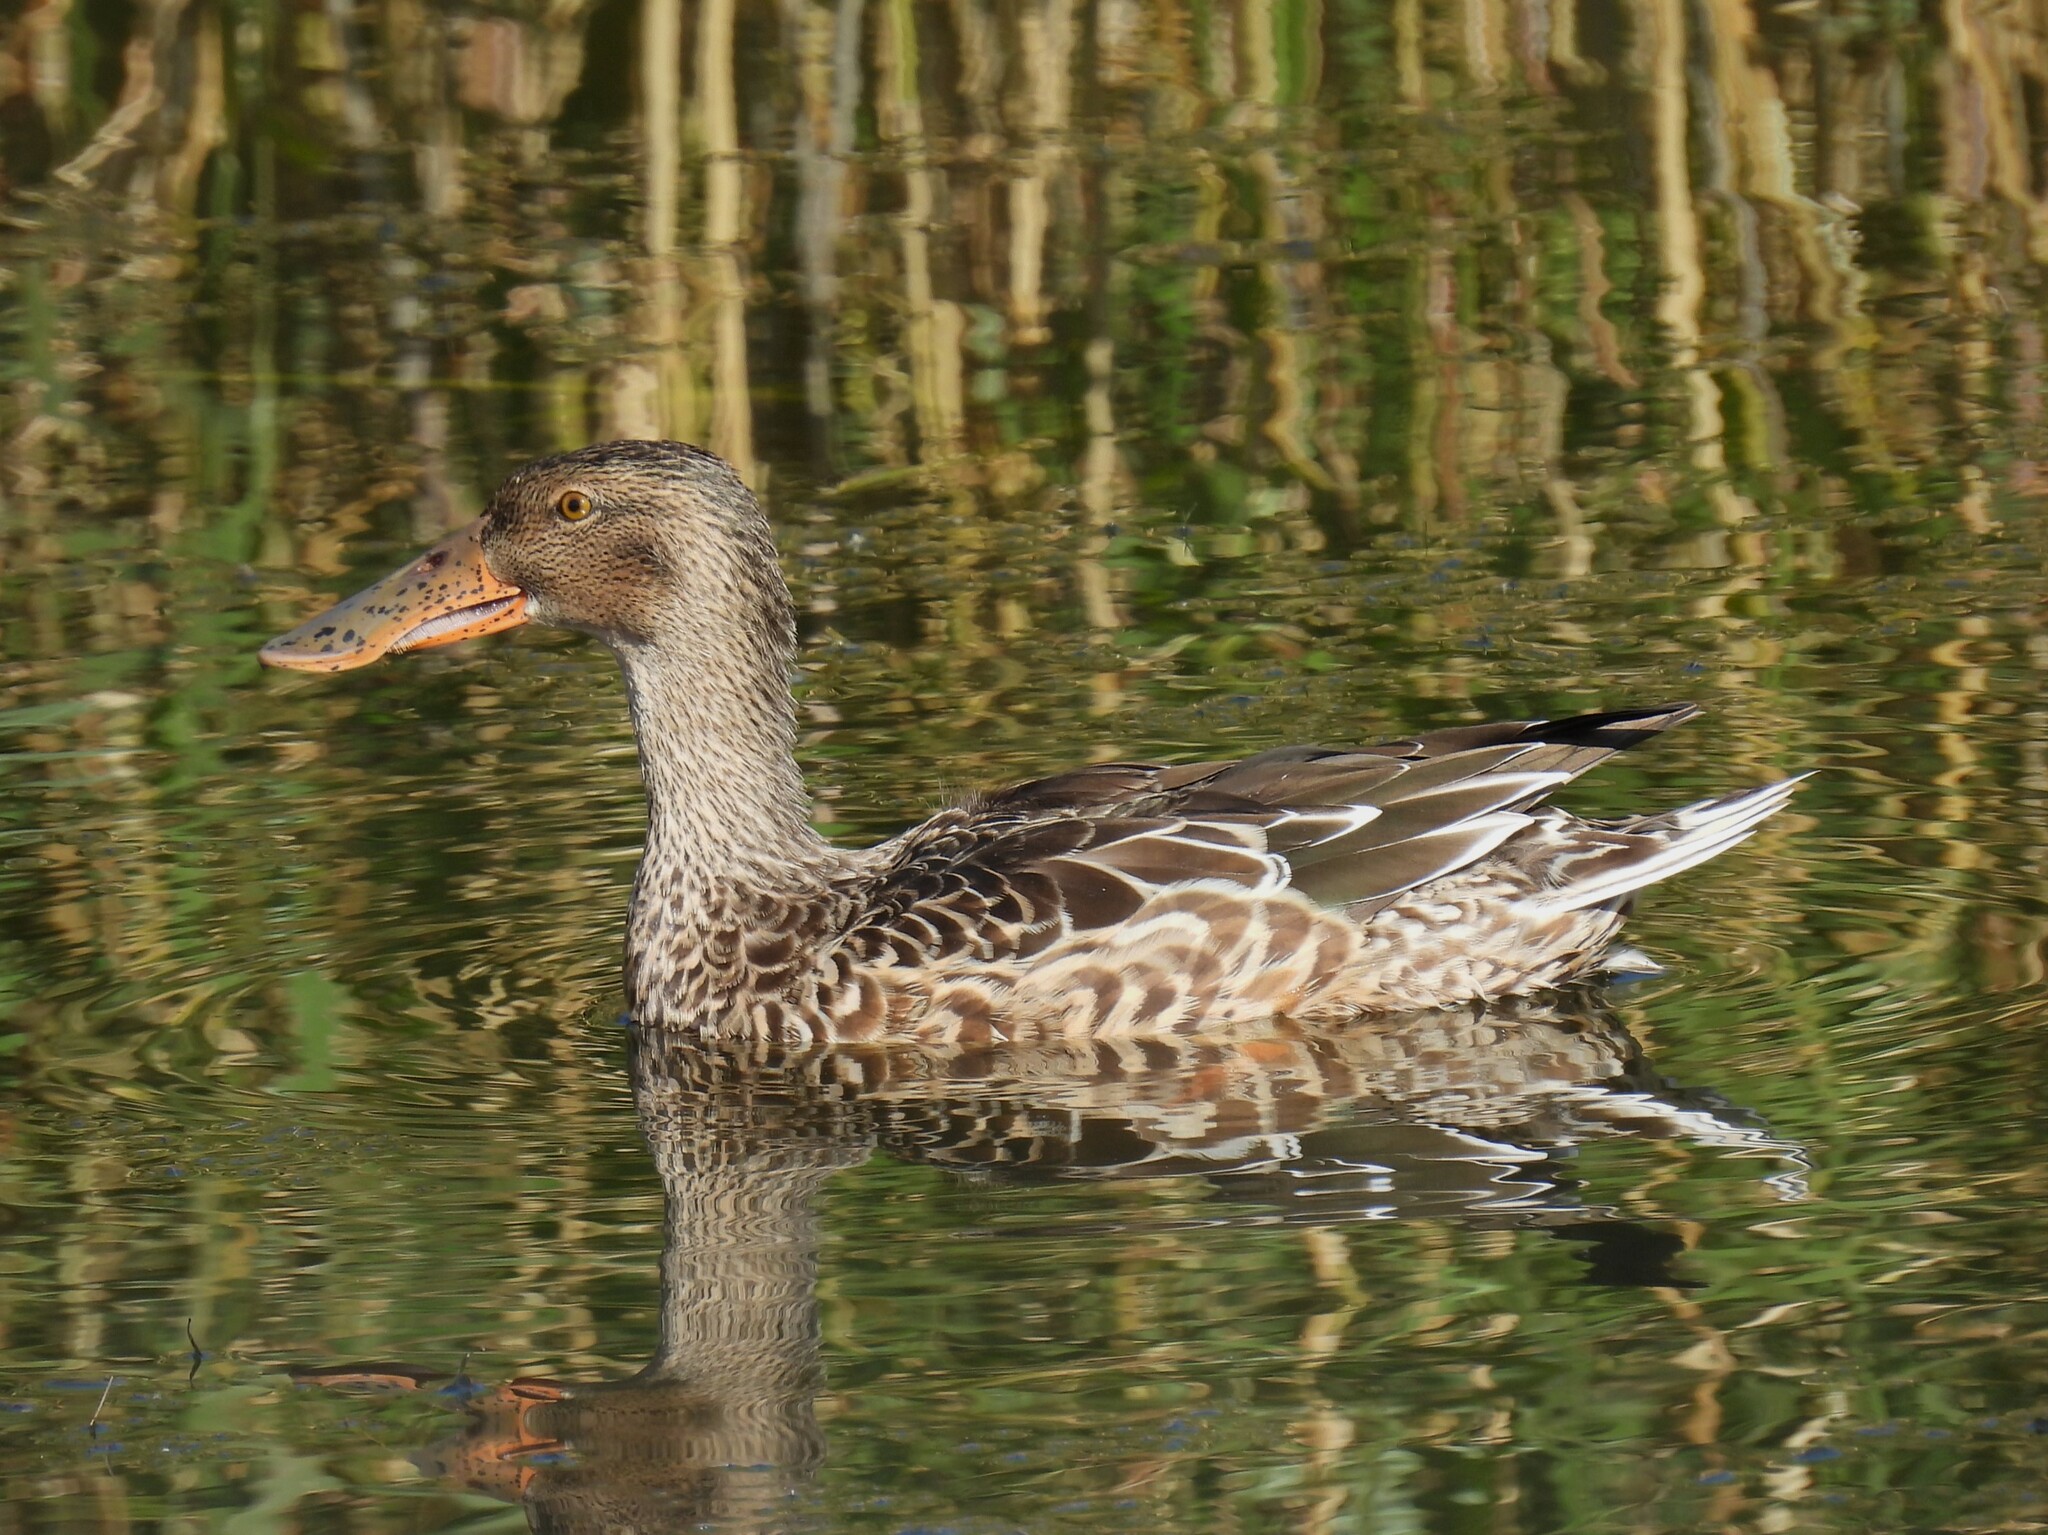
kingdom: Animalia
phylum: Chordata
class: Aves
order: Anseriformes
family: Anatidae
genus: Spatula
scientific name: Spatula clypeata
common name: Northern shoveler
